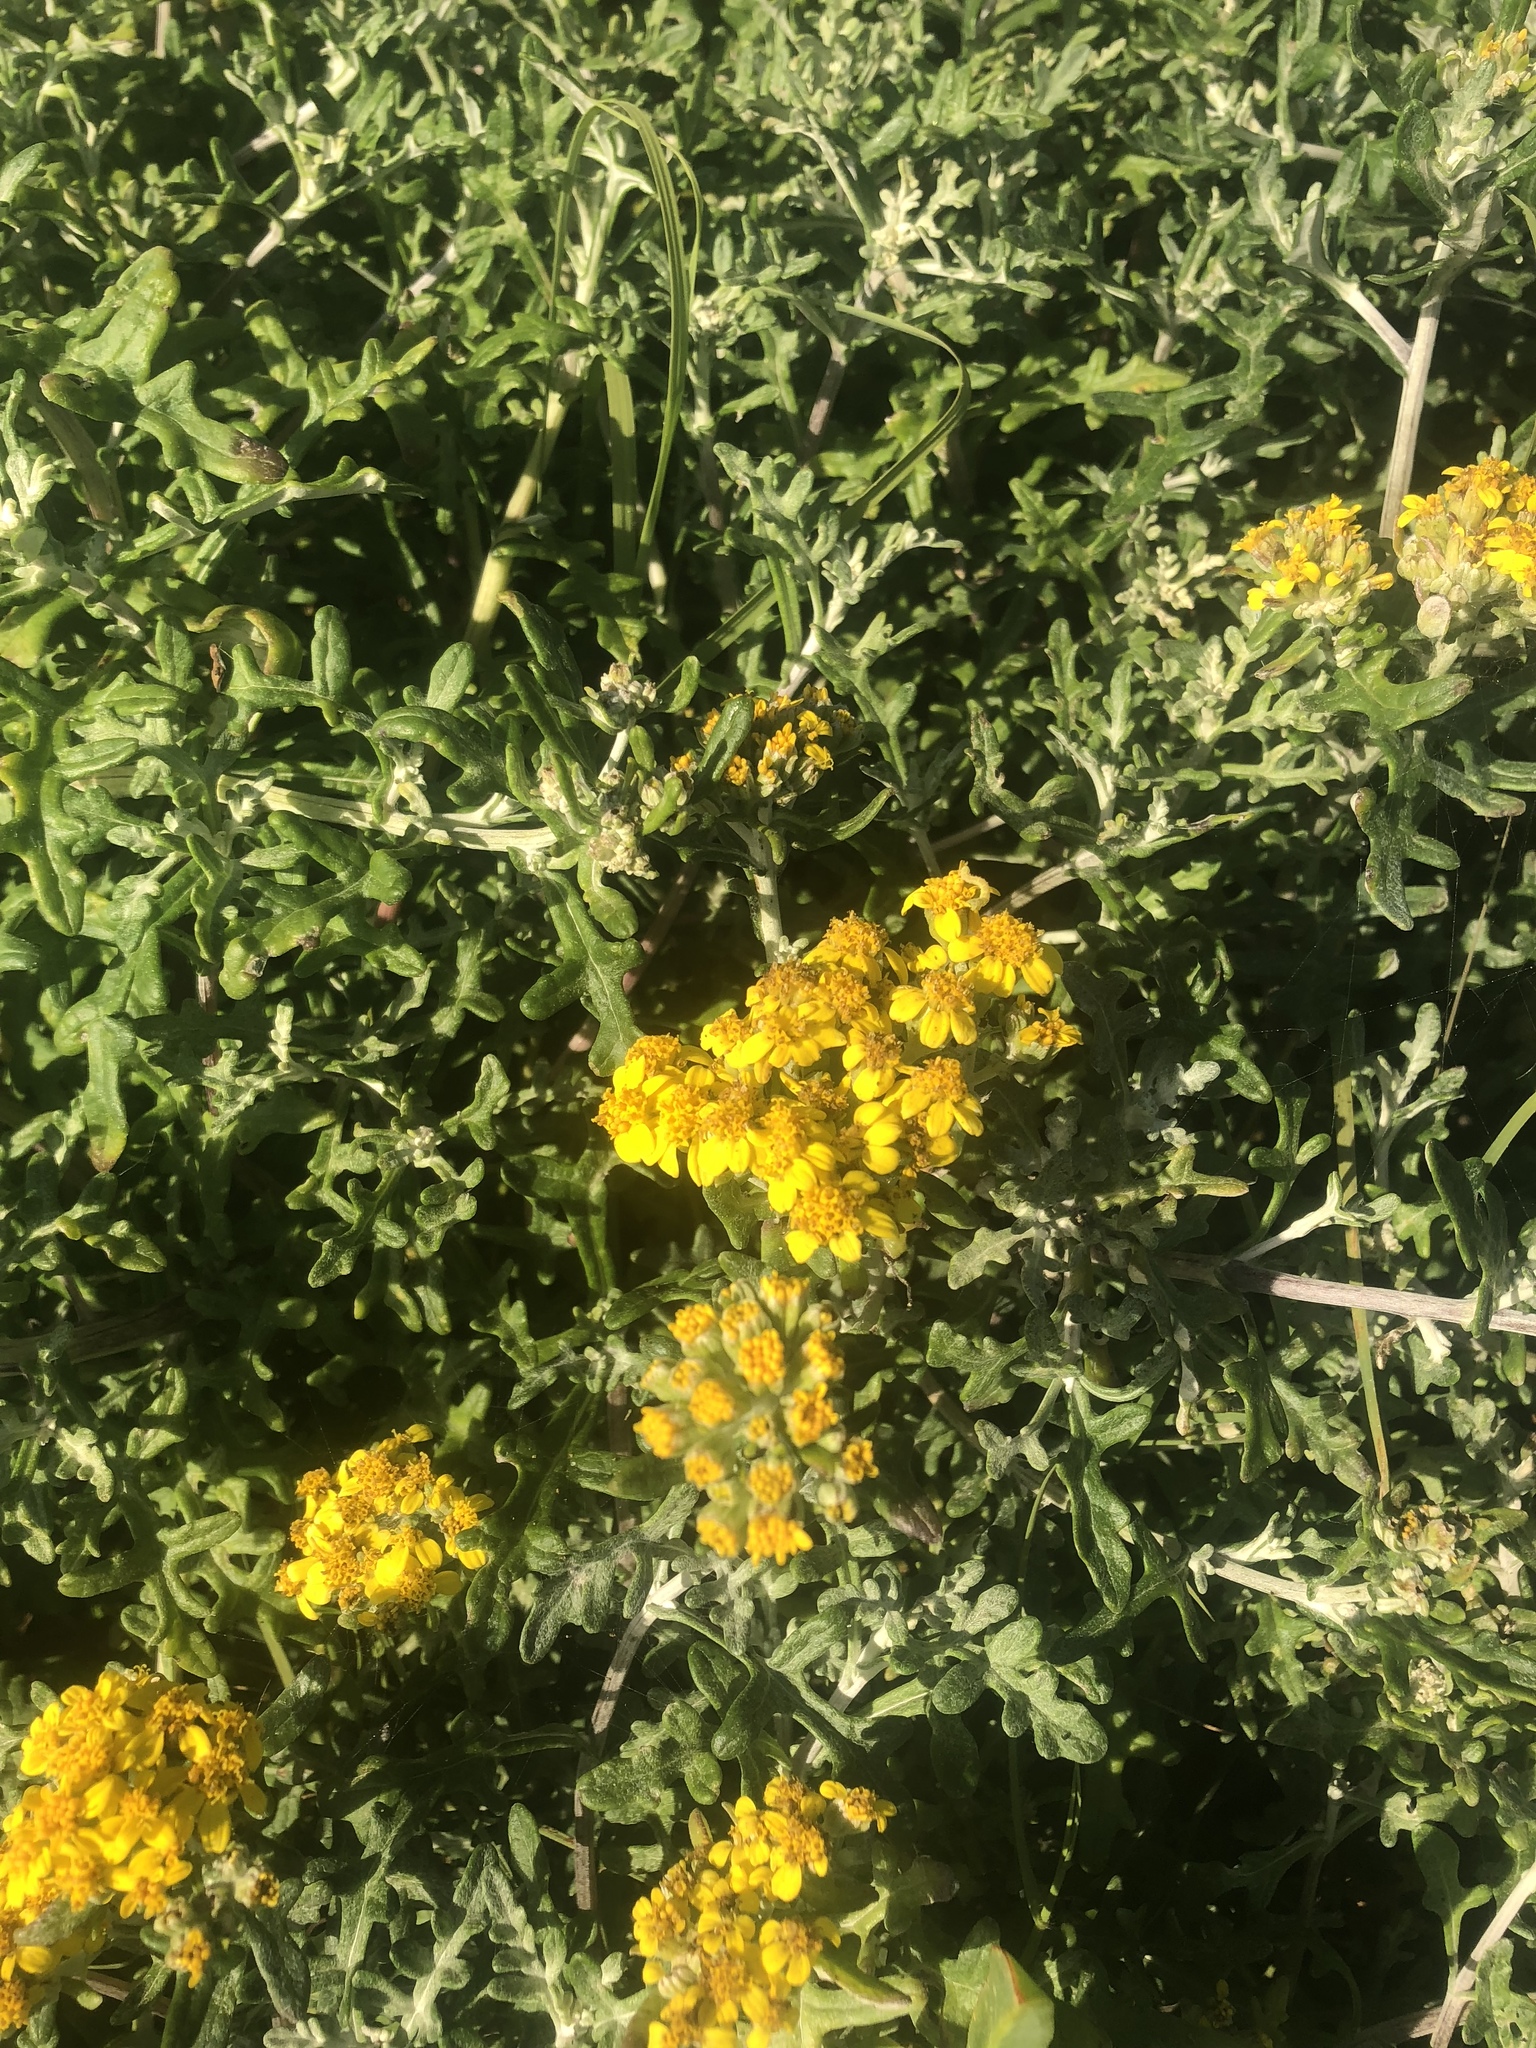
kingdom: Plantae
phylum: Tracheophyta
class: Magnoliopsida
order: Asterales
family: Asteraceae
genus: Eriophyllum
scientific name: Eriophyllum staechadifolium
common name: Lizardtail
